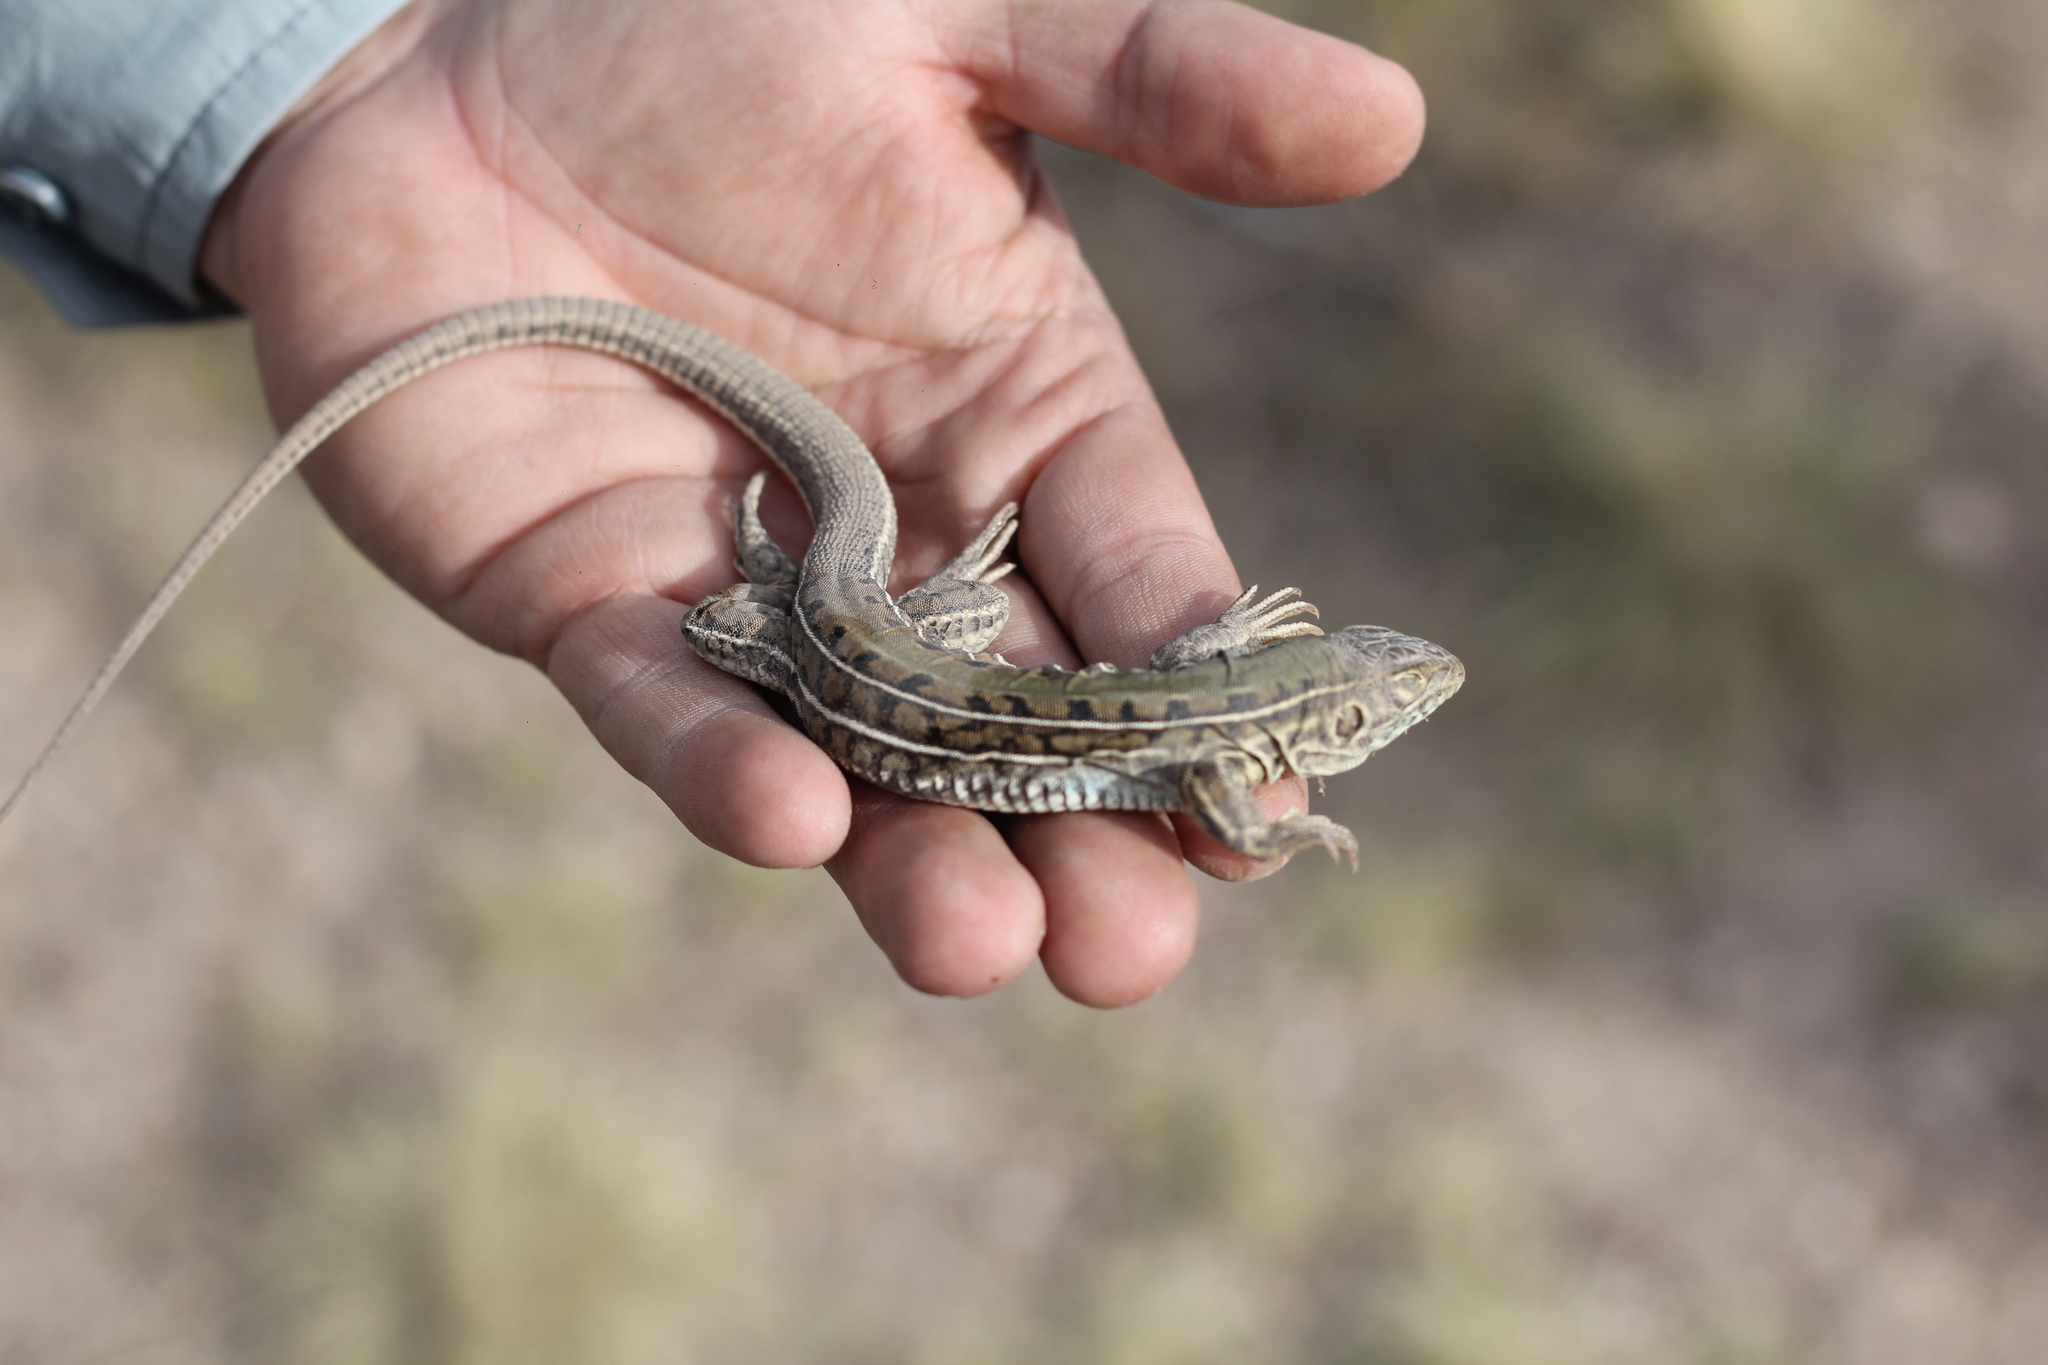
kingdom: Animalia
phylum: Chordata
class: Squamata
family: Teiidae
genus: Teius
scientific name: Teius oculatus
